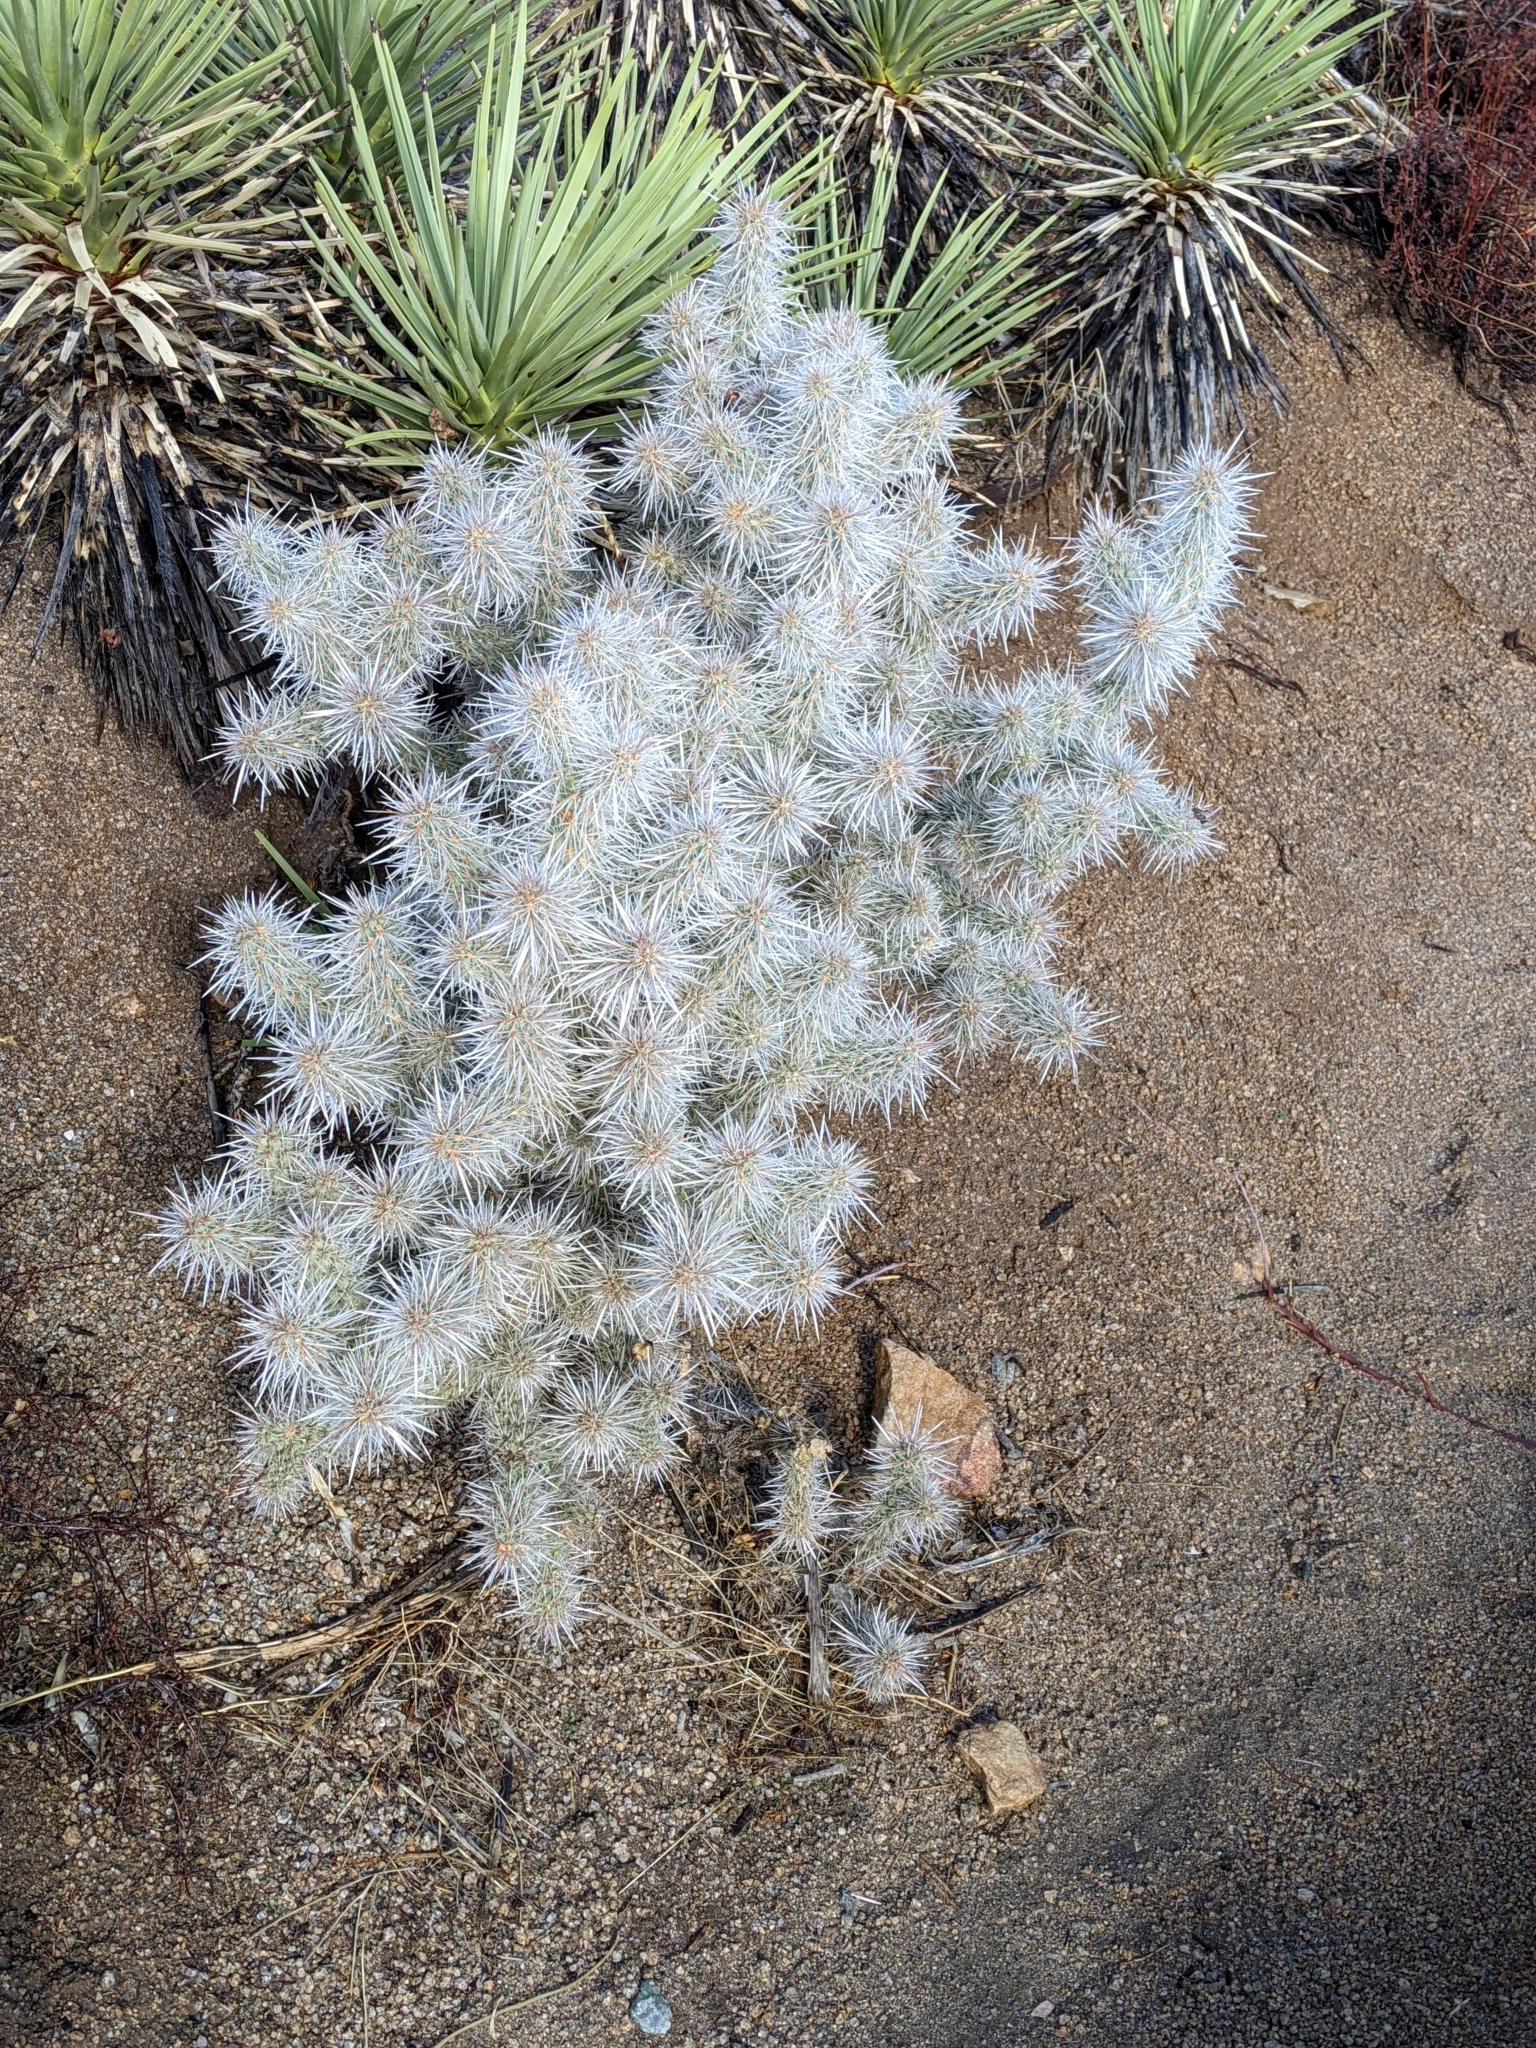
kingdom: Plantae
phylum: Tracheophyta
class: Magnoliopsida
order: Caryophyllales
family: Cactaceae
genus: Cylindropuntia
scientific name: Cylindropuntia echinocarpa
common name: Ground cholla
